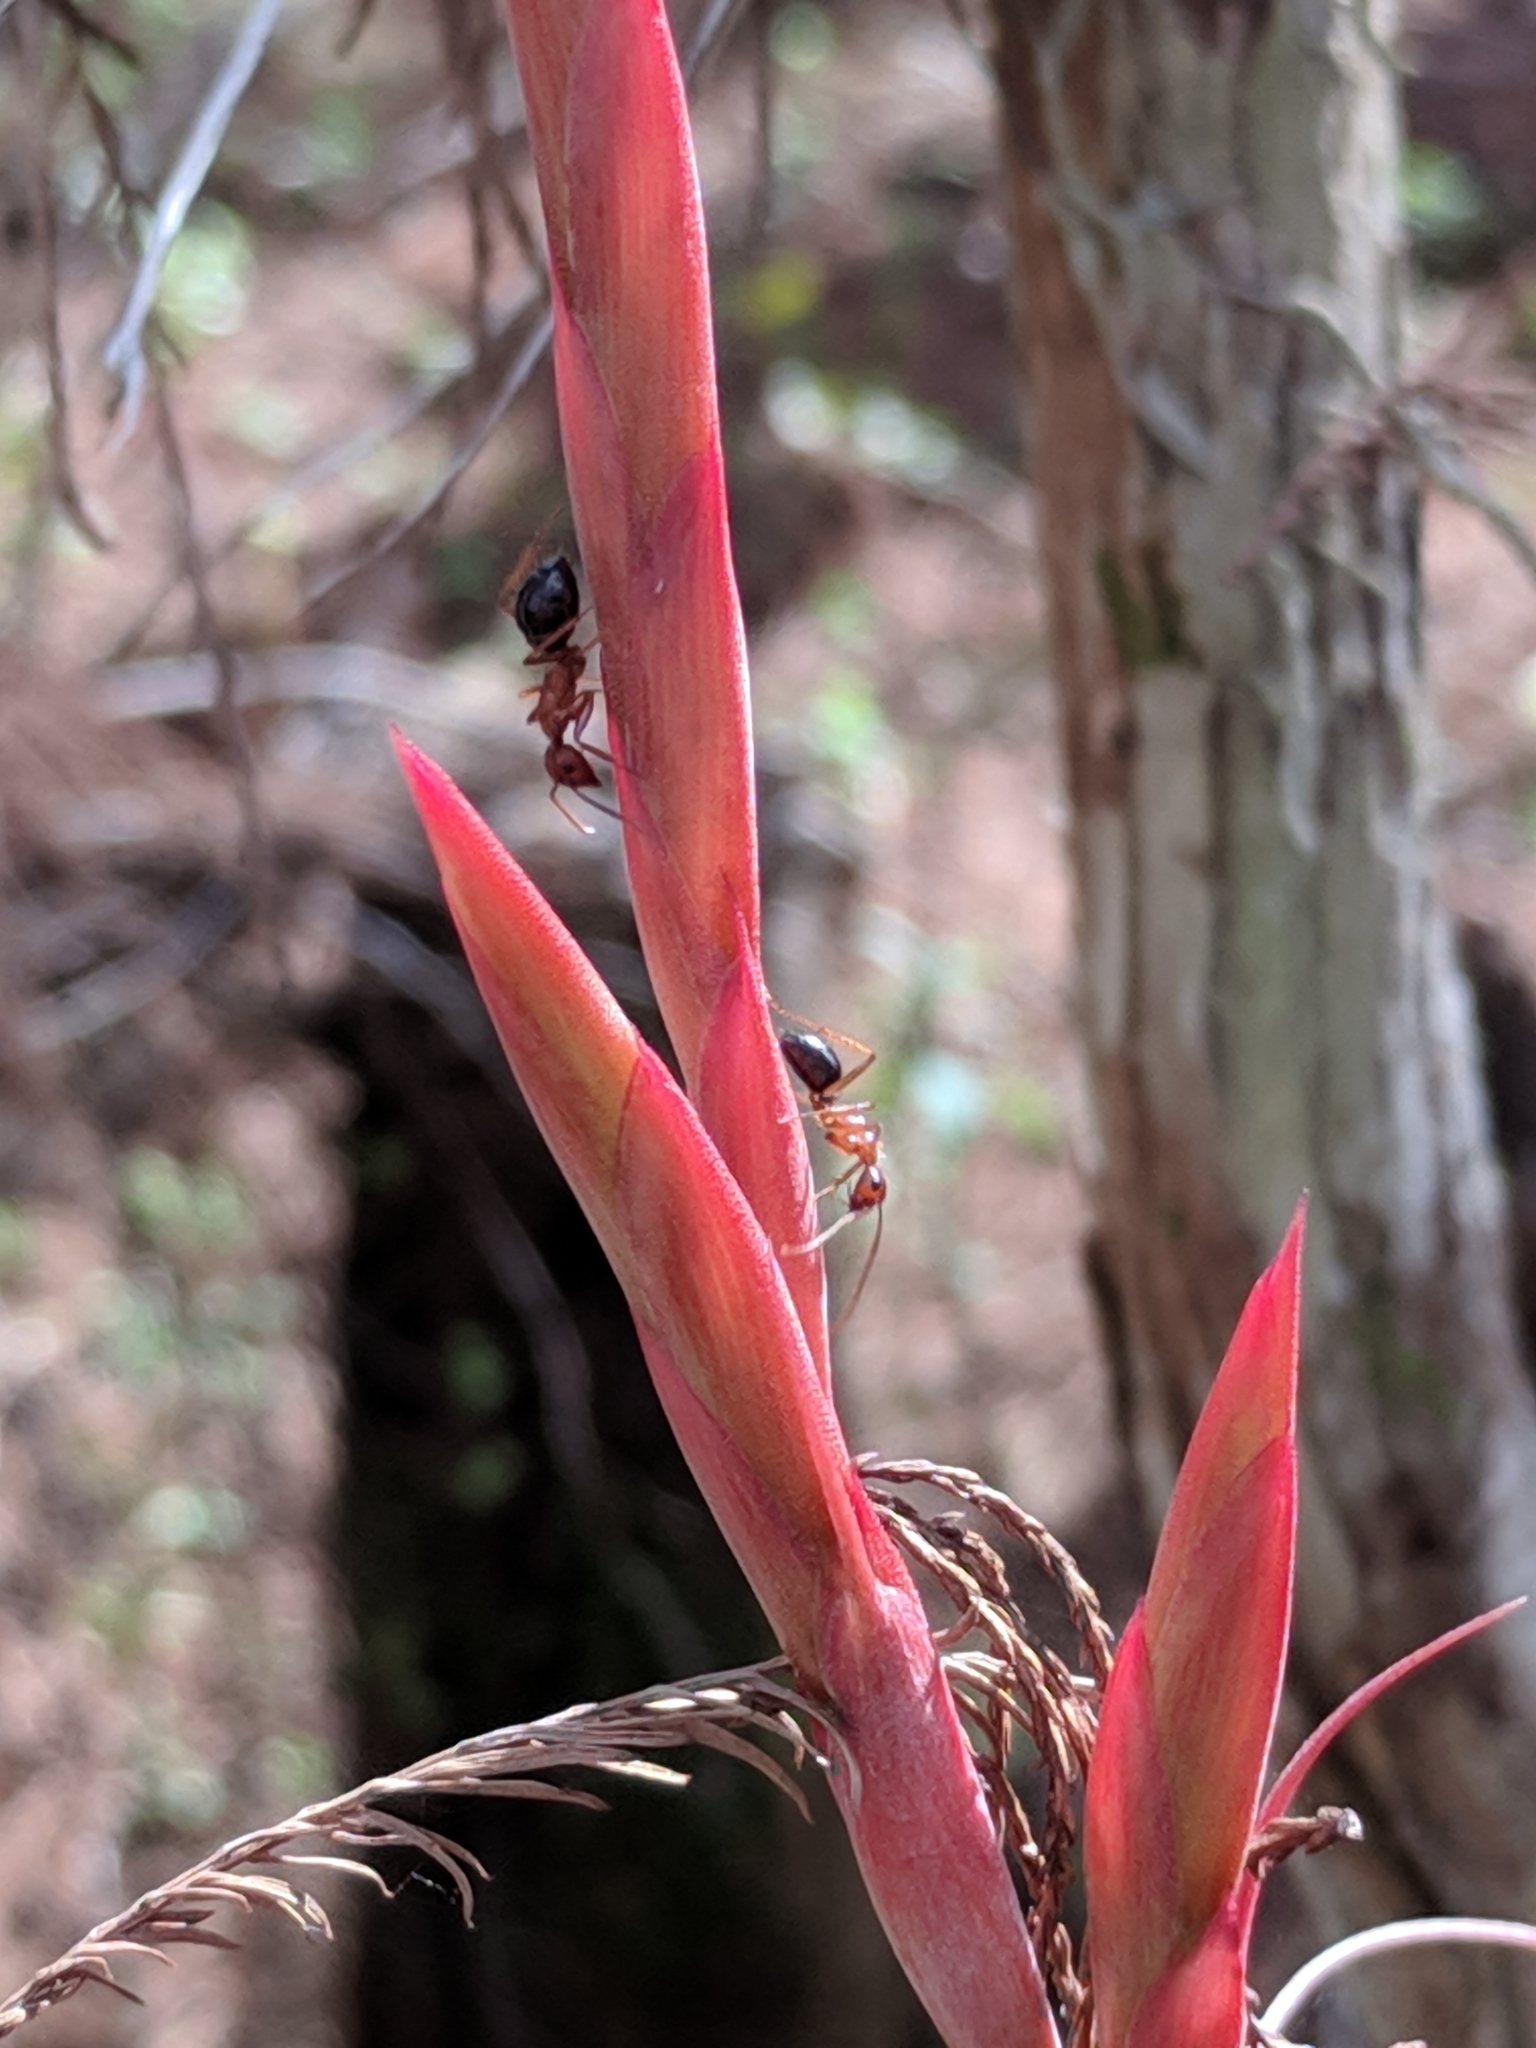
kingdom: Animalia
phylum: Arthropoda
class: Insecta
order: Hymenoptera
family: Formicidae
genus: Camponotus
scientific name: Camponotus floridanus
